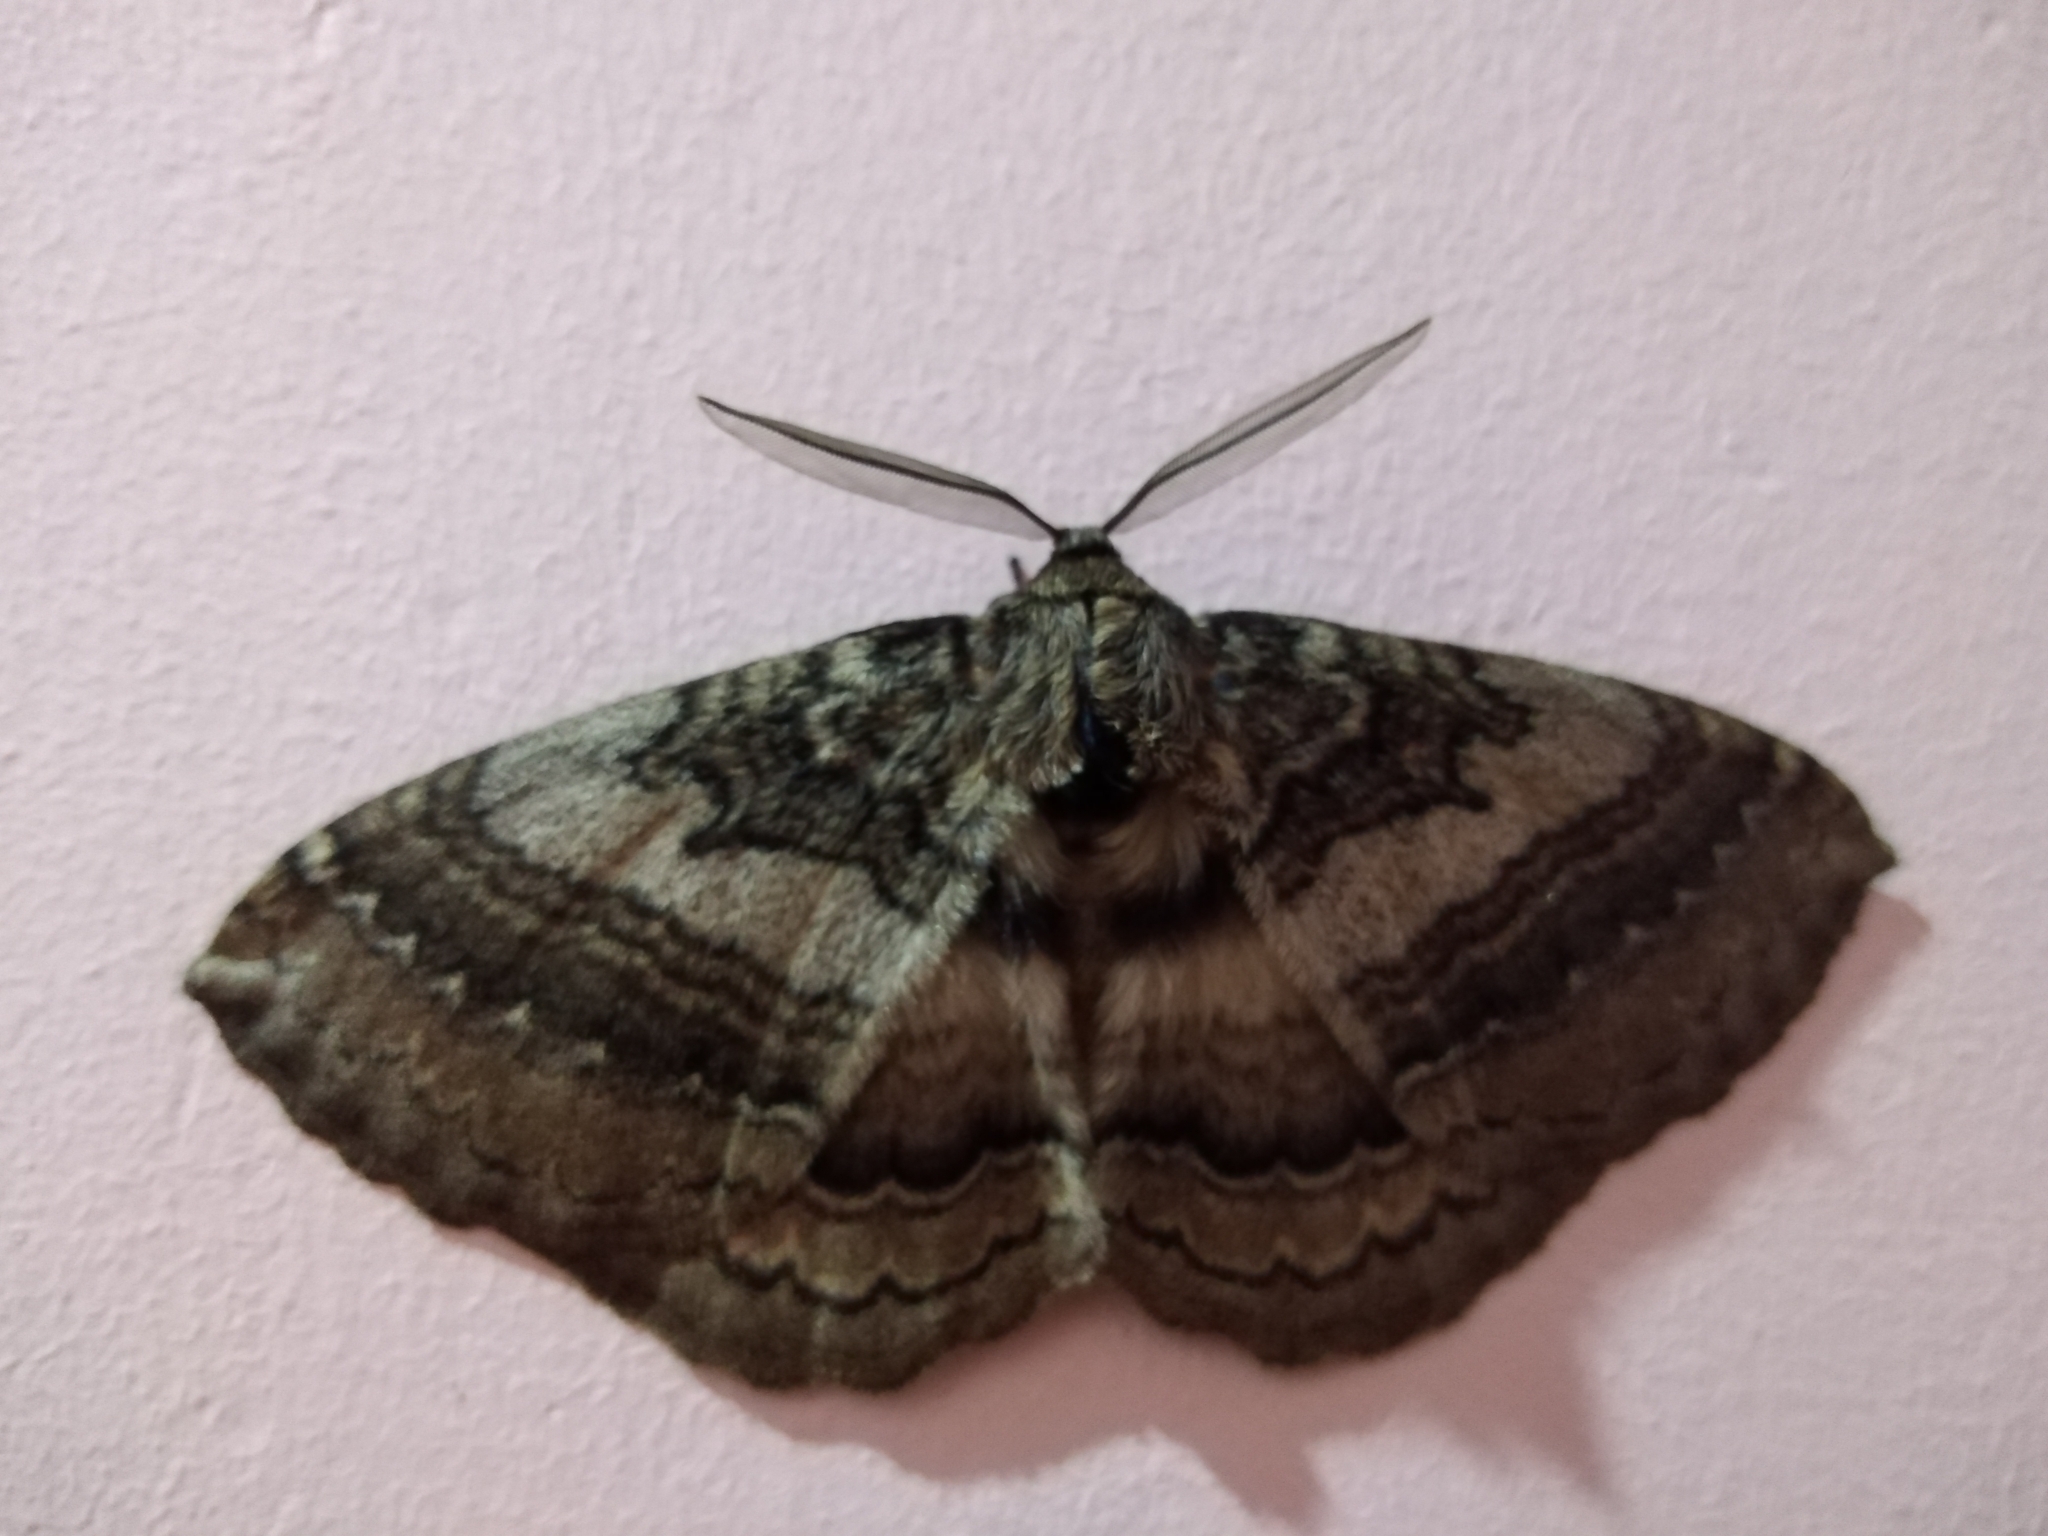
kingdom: Animalia
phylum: Arthropoda
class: Insecta
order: Lepidoptera
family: Eupterotidae
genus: Striphnopteryx
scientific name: Striphnopteryx edulis
